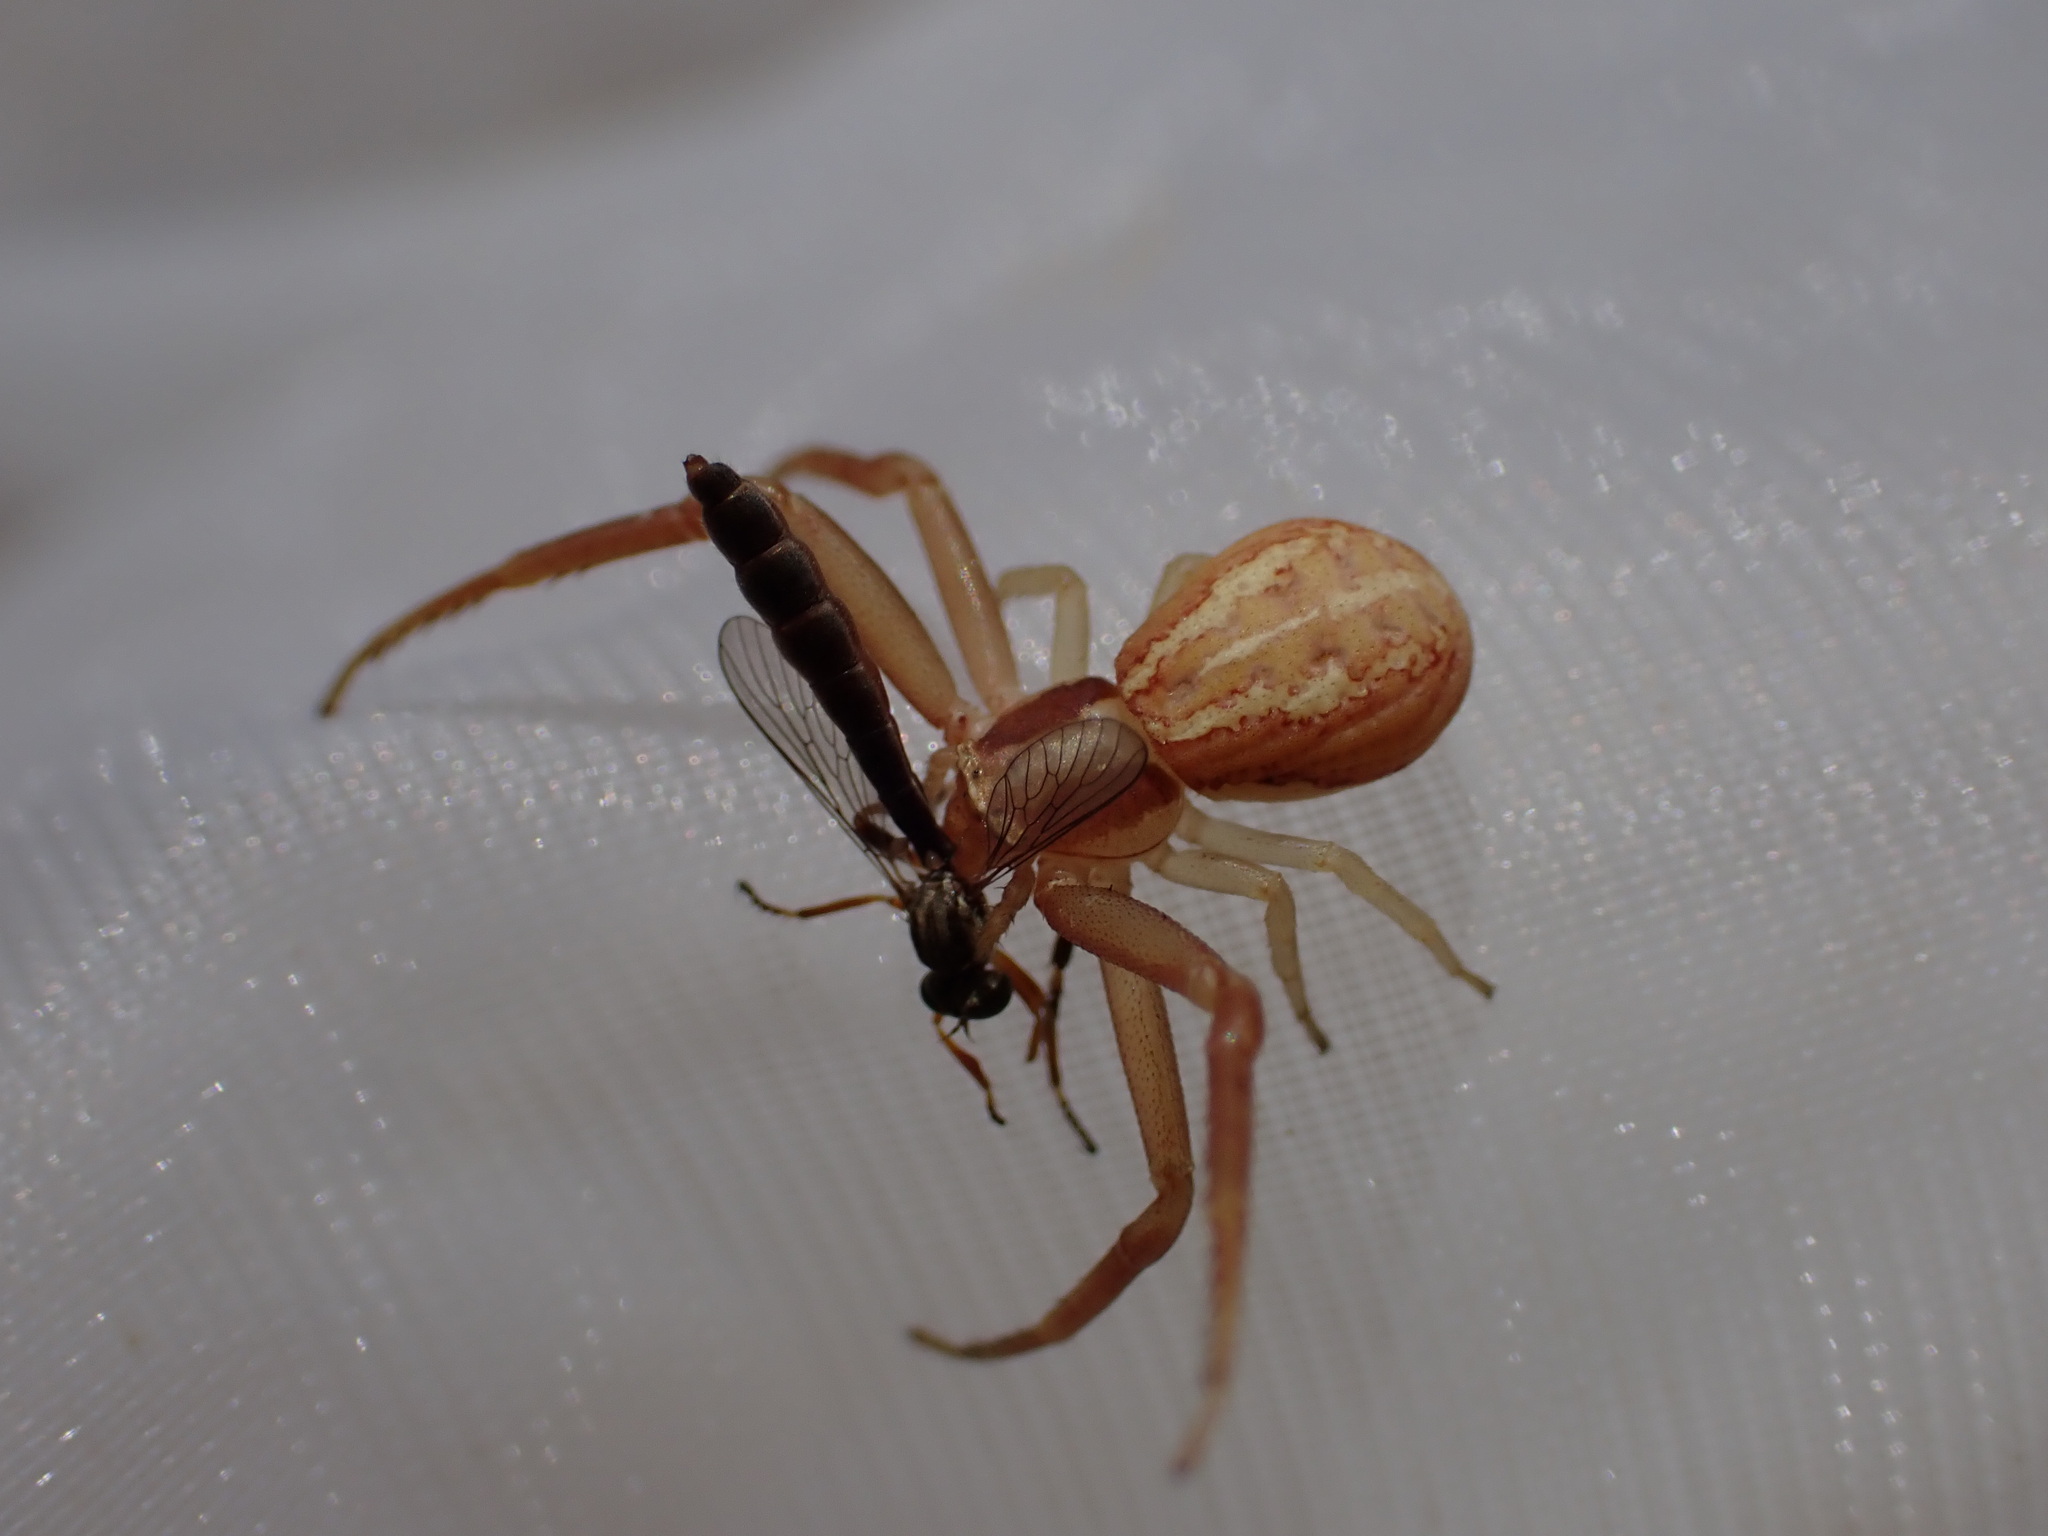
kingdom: Animalia
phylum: Arthropoda
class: Arachnida
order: Araneae
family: Thomisidae
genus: Runcinia
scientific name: Runcinia grammica
